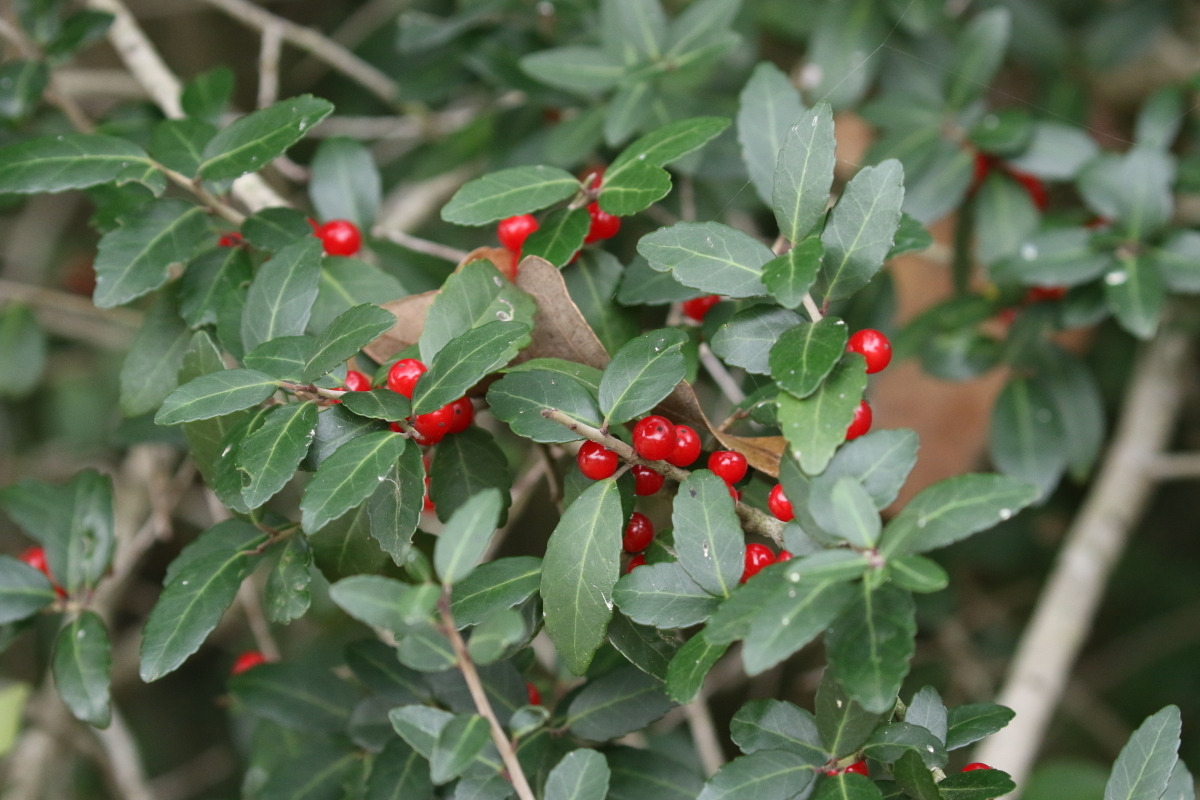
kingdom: Plantae
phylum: Tracheophyta
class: Magnoliopsida
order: Aquifoliales
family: Aquifoliaceae
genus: Ilex
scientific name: Ilex vomitoria
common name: Yaupon holly
